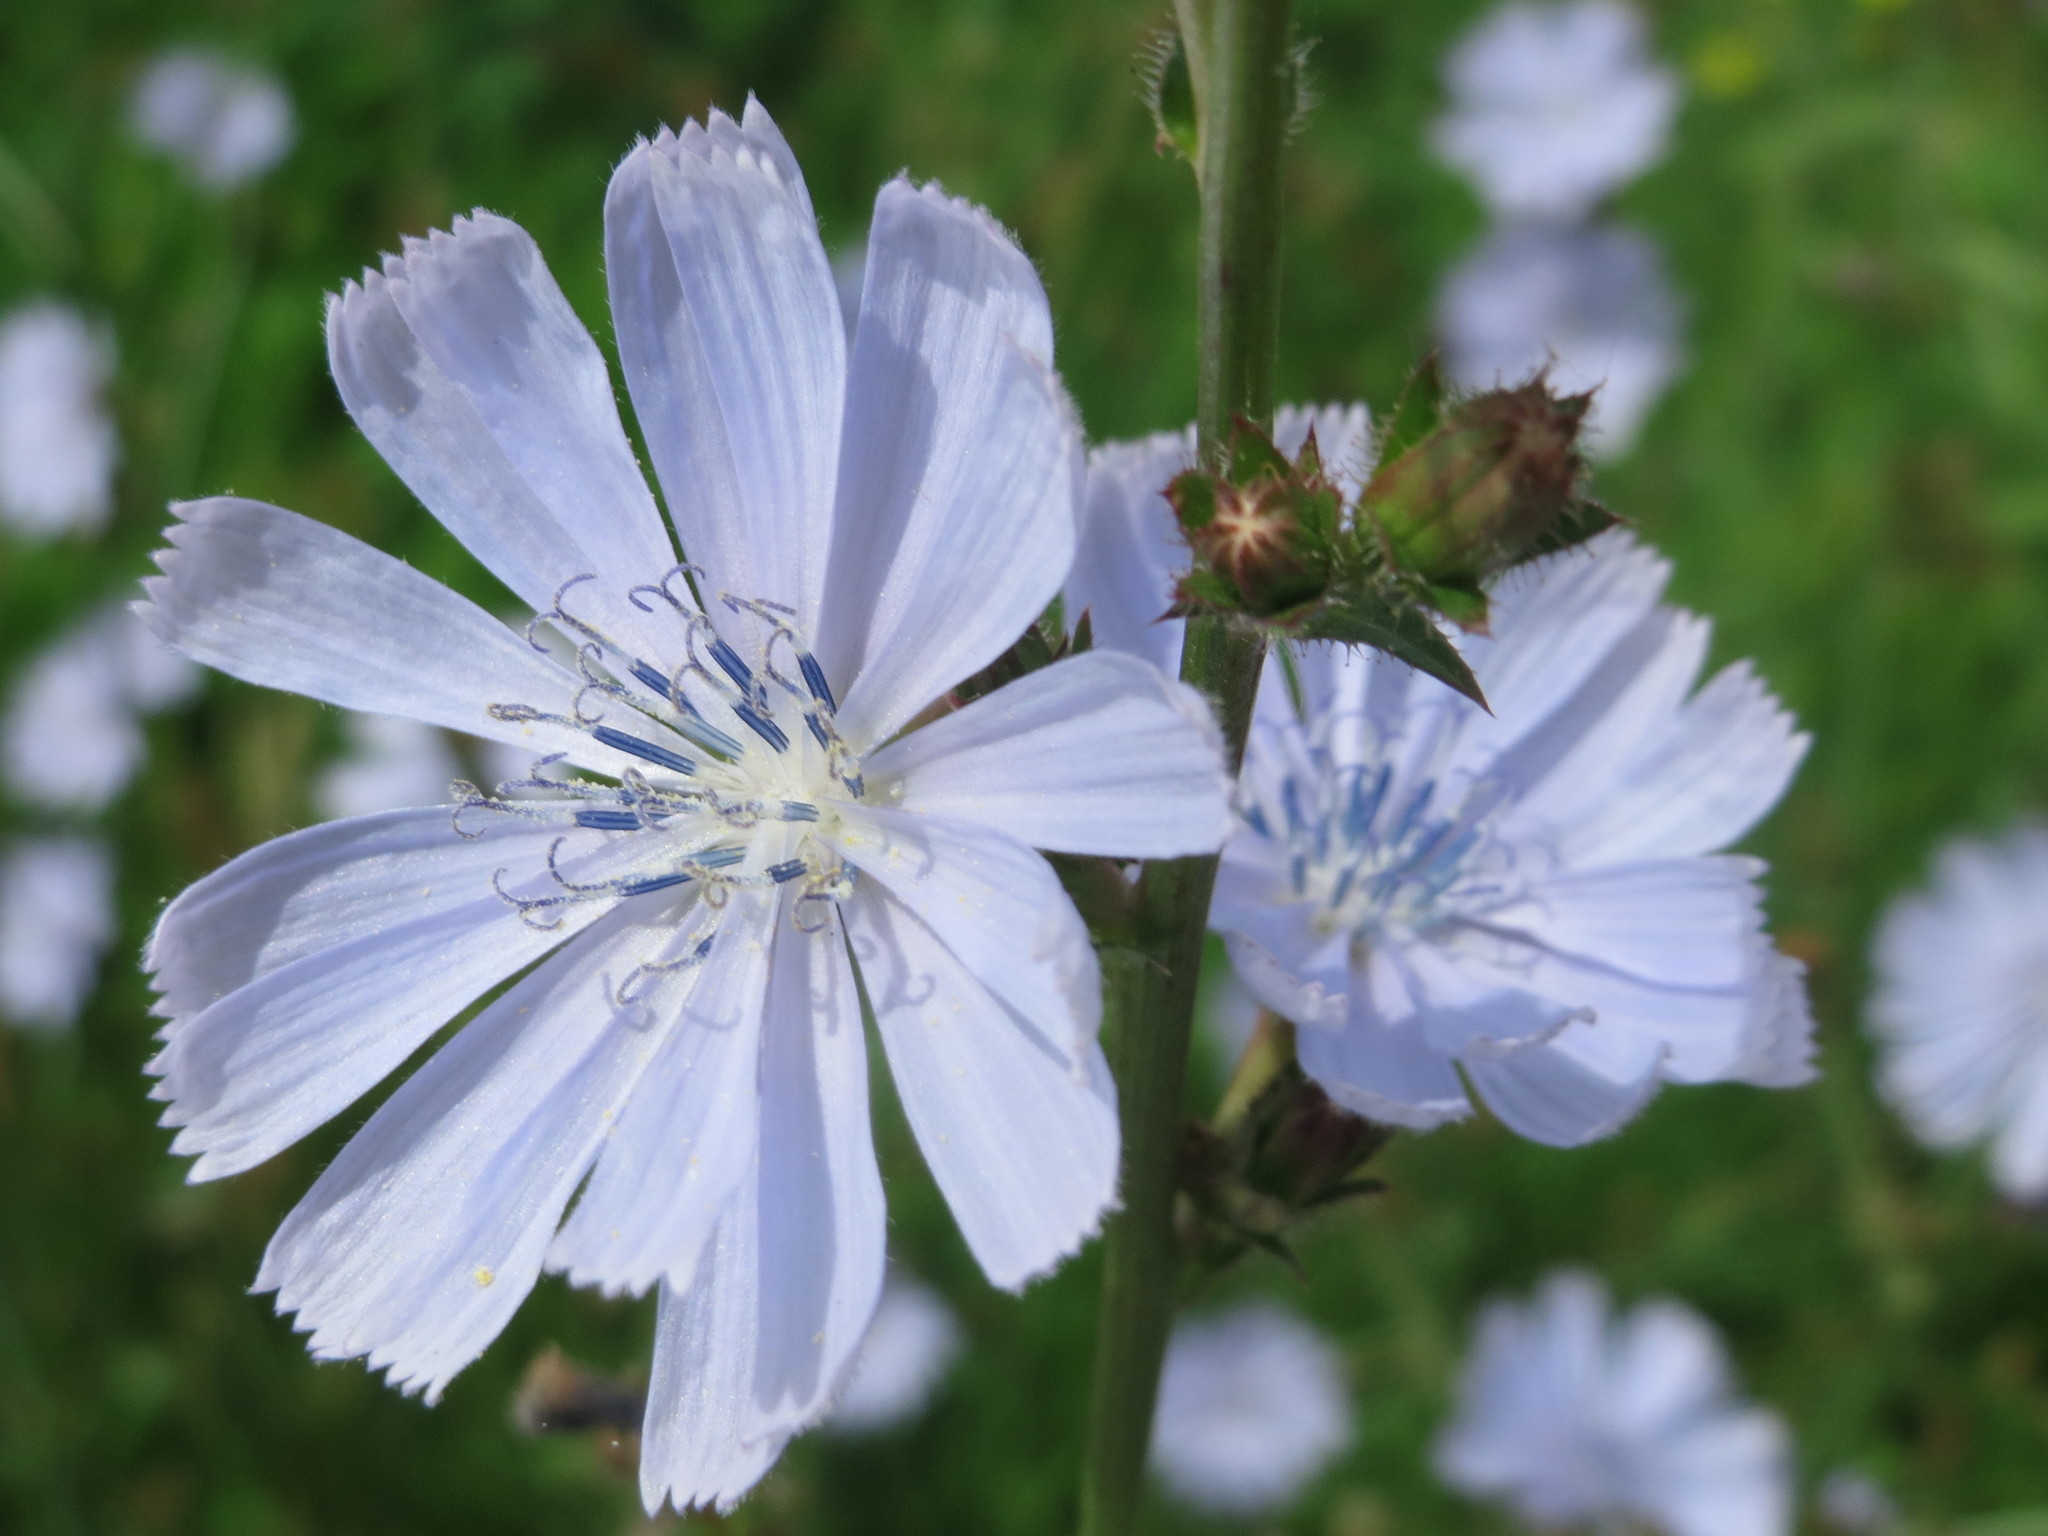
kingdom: Plantae
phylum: Tracheophyta
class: Magnoliopsida
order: Asterales
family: Asteraceae
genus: Cichorium
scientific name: Cichorium intybus
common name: Chicory
